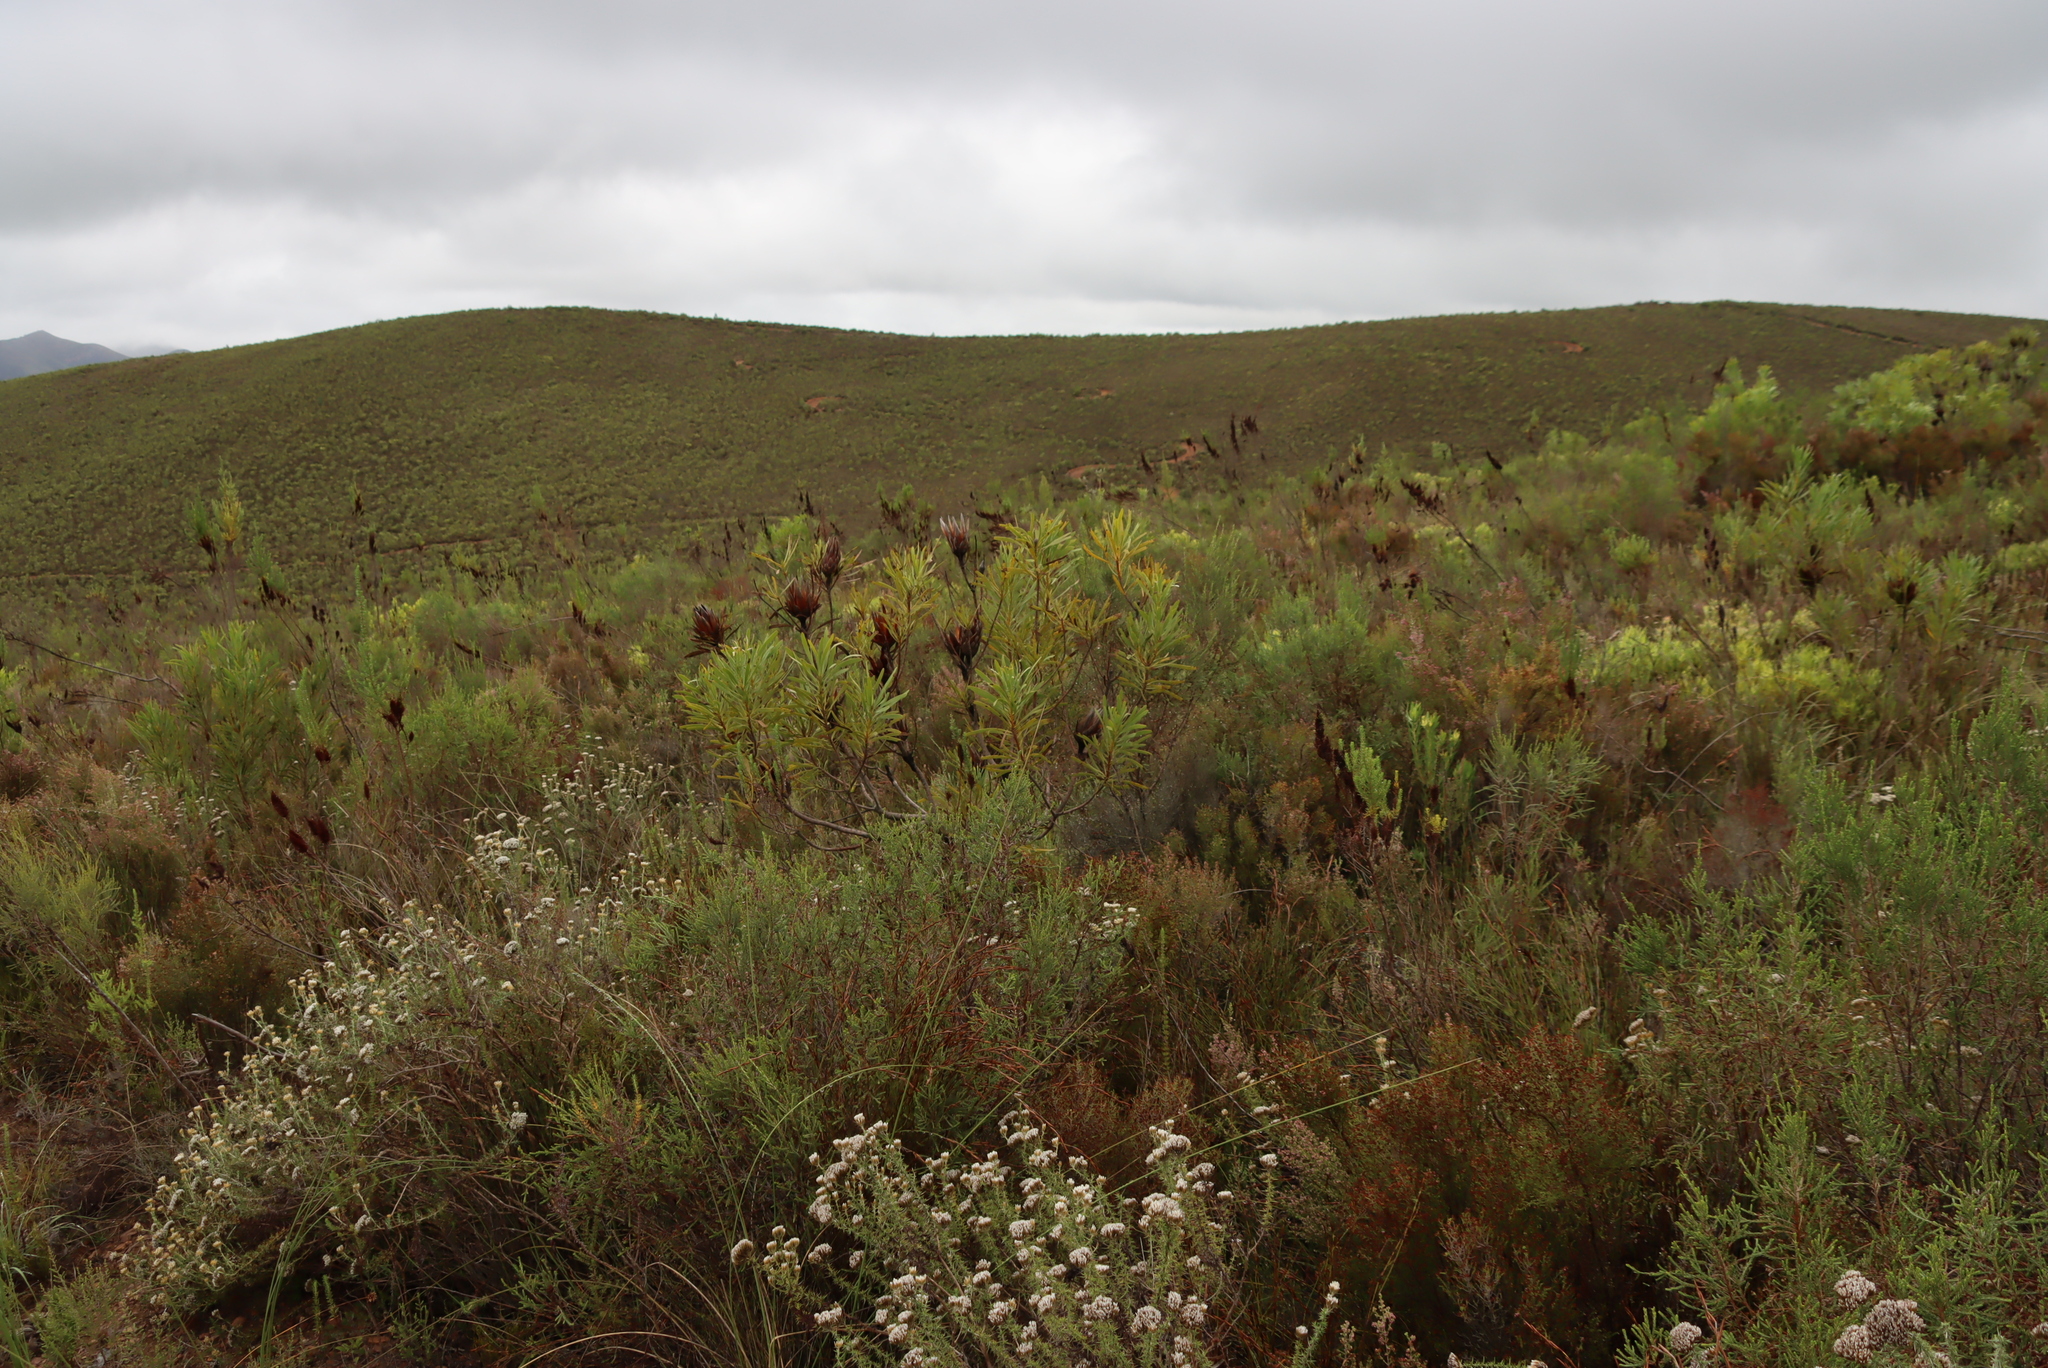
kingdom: Plantae
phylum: Tracheophyta
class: Magnoliopsida
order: Proteales
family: Proteaceae
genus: Protea
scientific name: Protea repens
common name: Sugarbush
